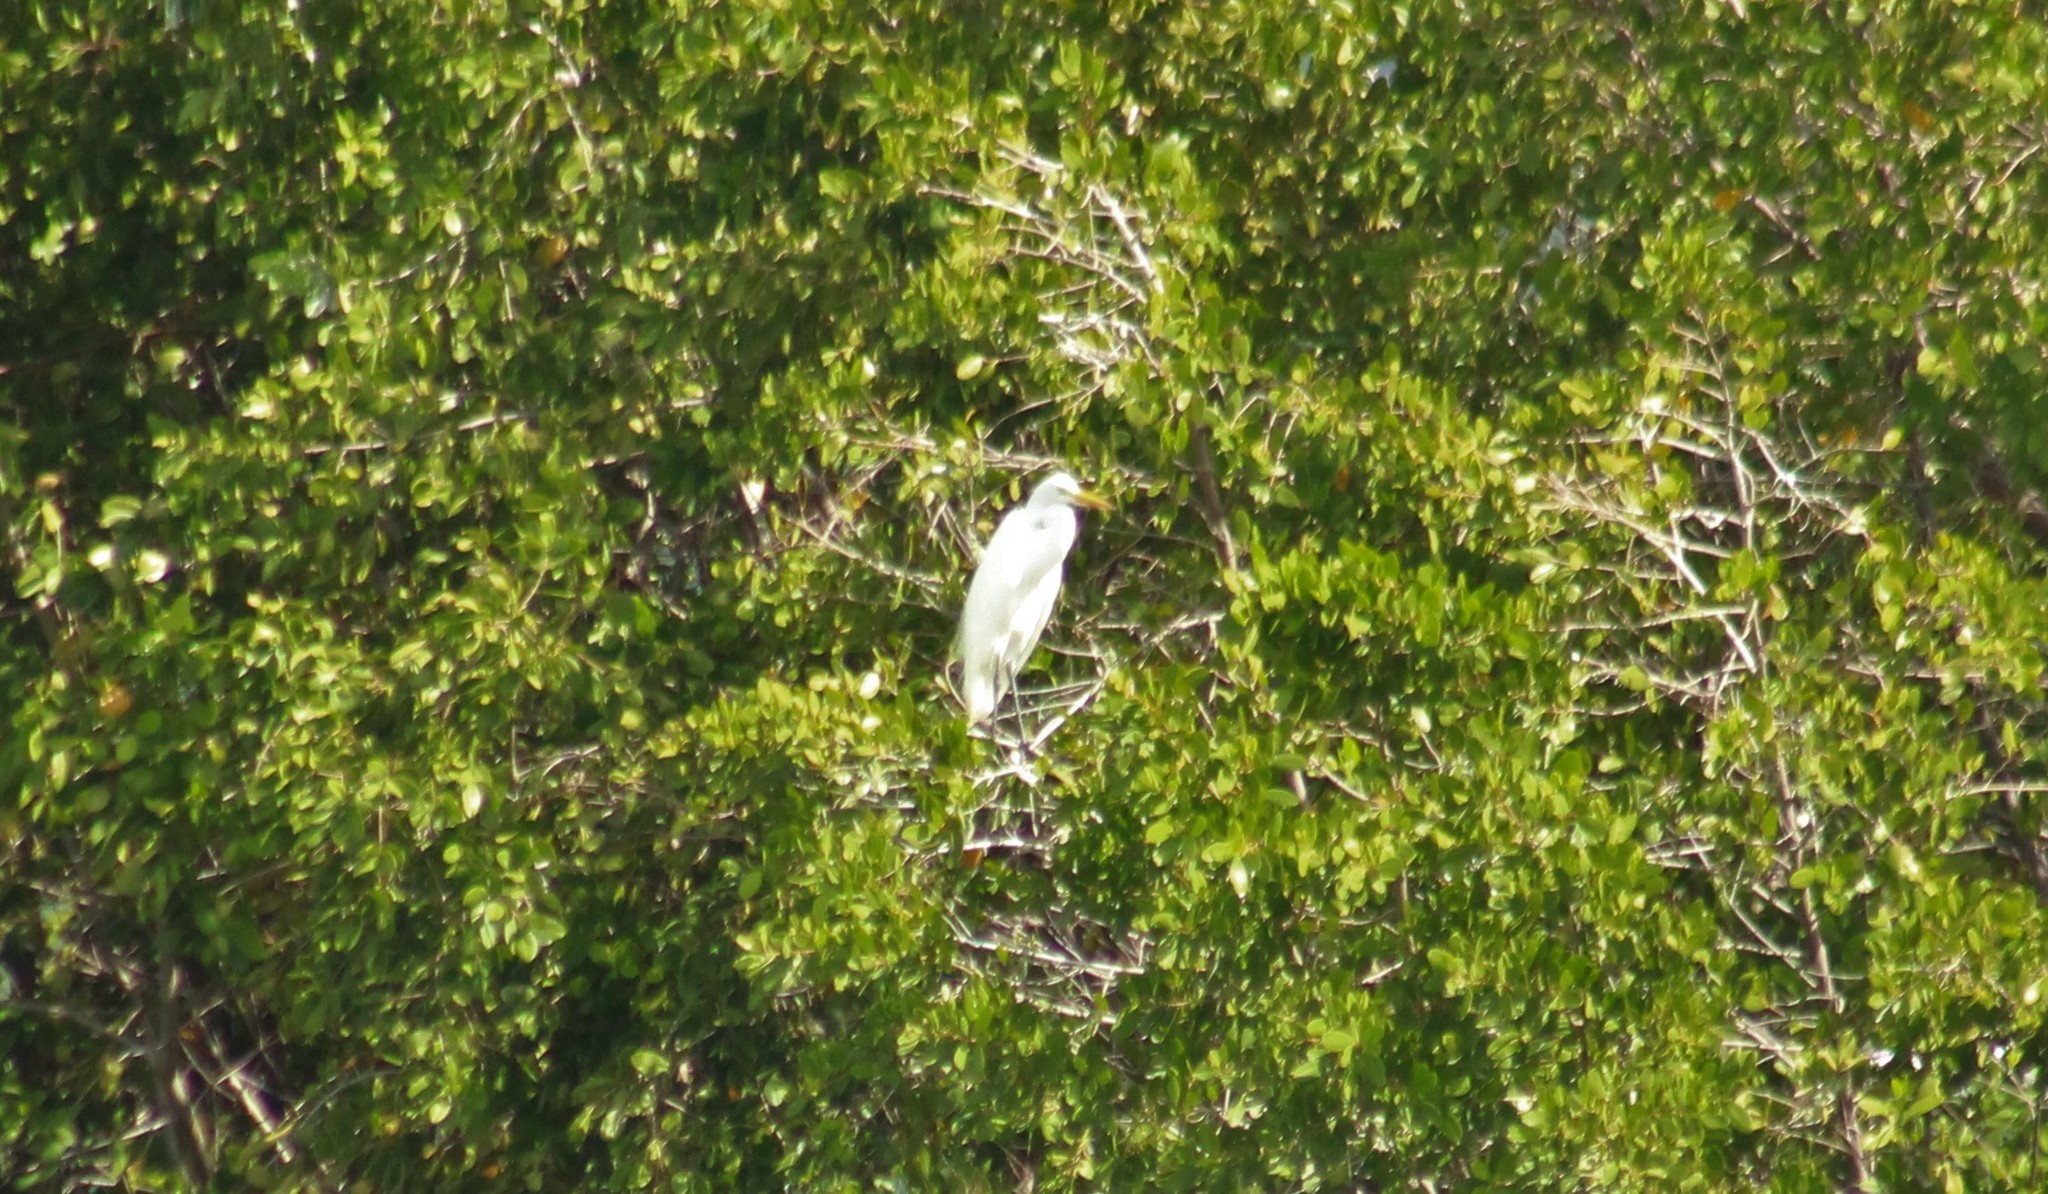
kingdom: Animalia
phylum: Chordata
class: Aves
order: Pelecaniformes
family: Ardeidae
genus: Ardea
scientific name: Ardea alba
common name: Great egret
